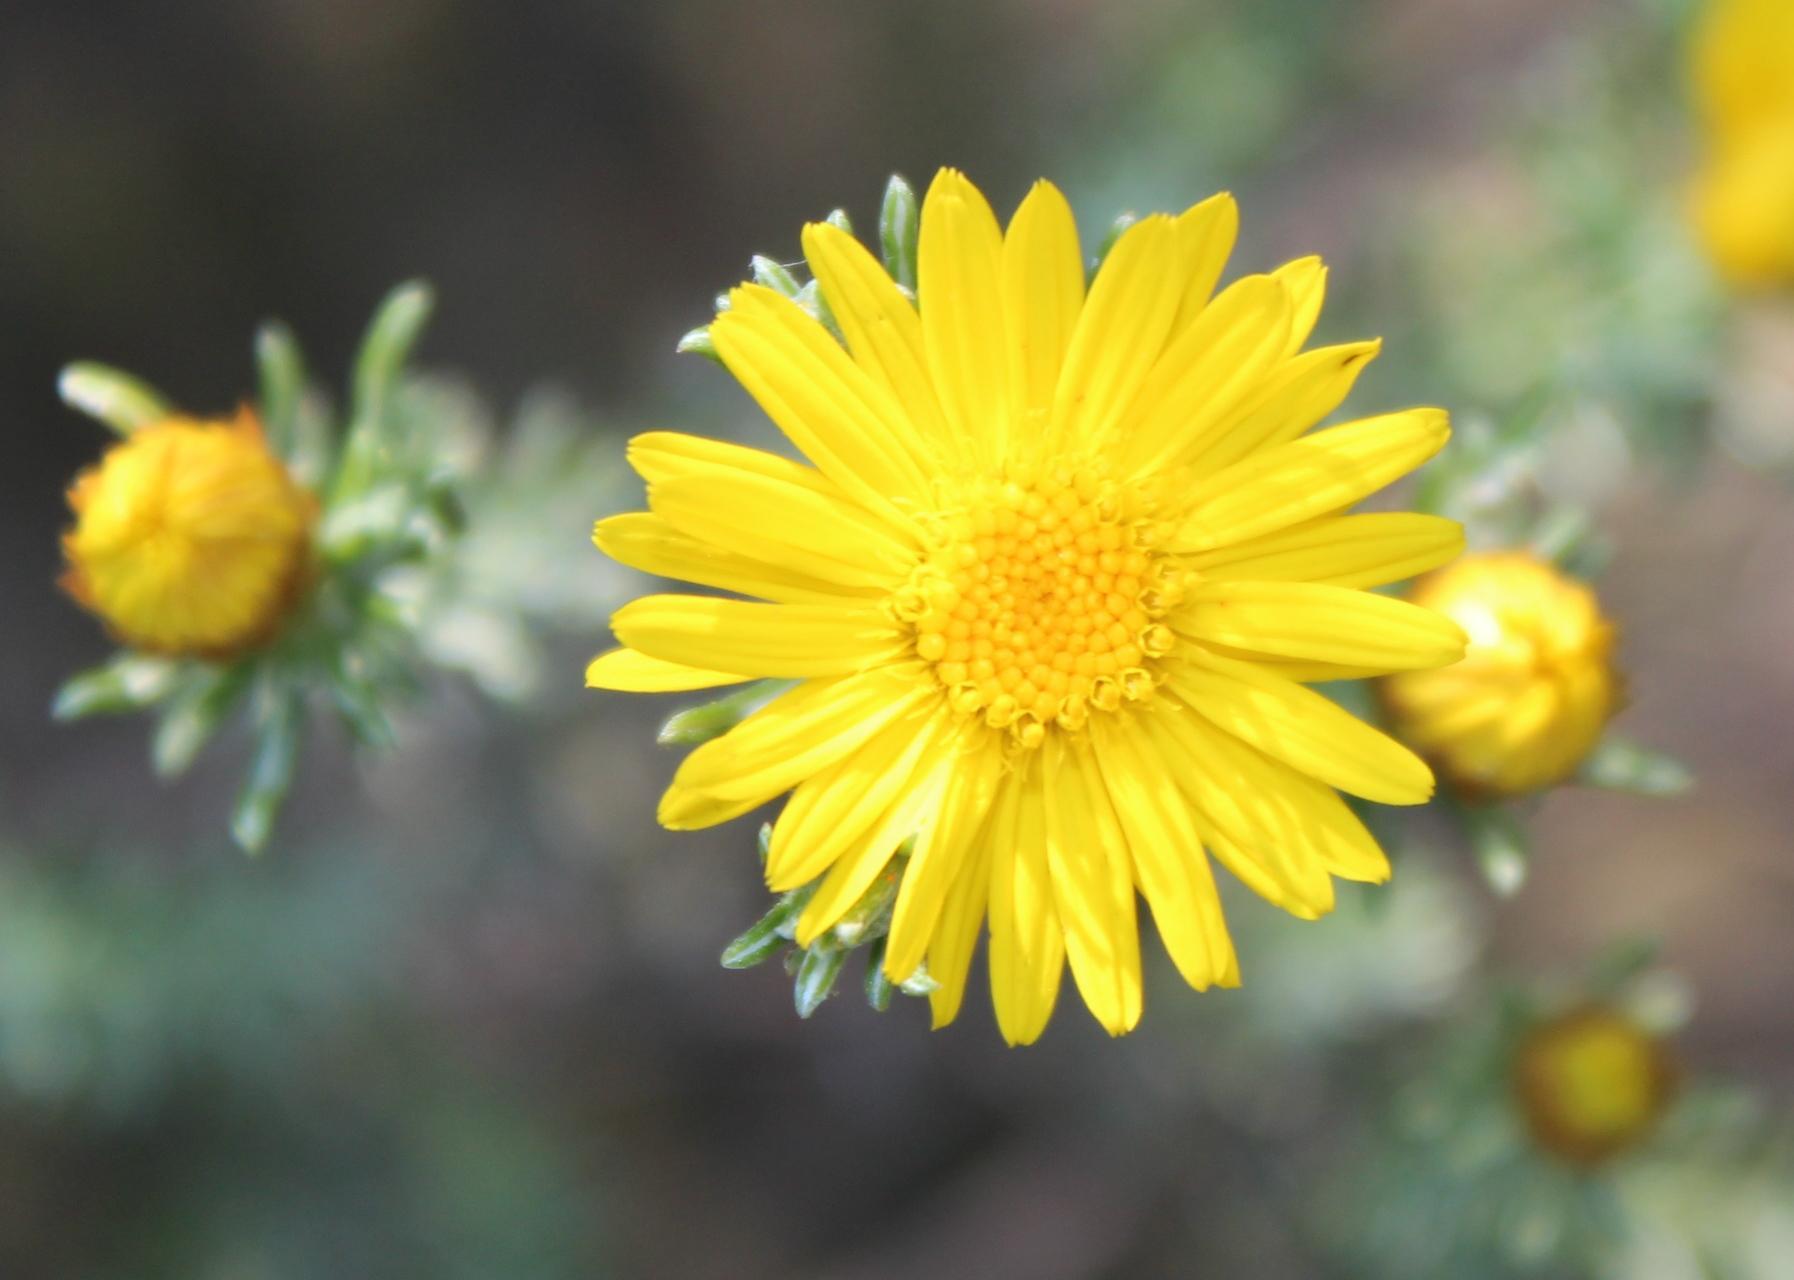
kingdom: Plantae
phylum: Tracheophyta
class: Magnoliopsida
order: Asterales
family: Asteraceae
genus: Oedera
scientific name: Oedera fruticosa
